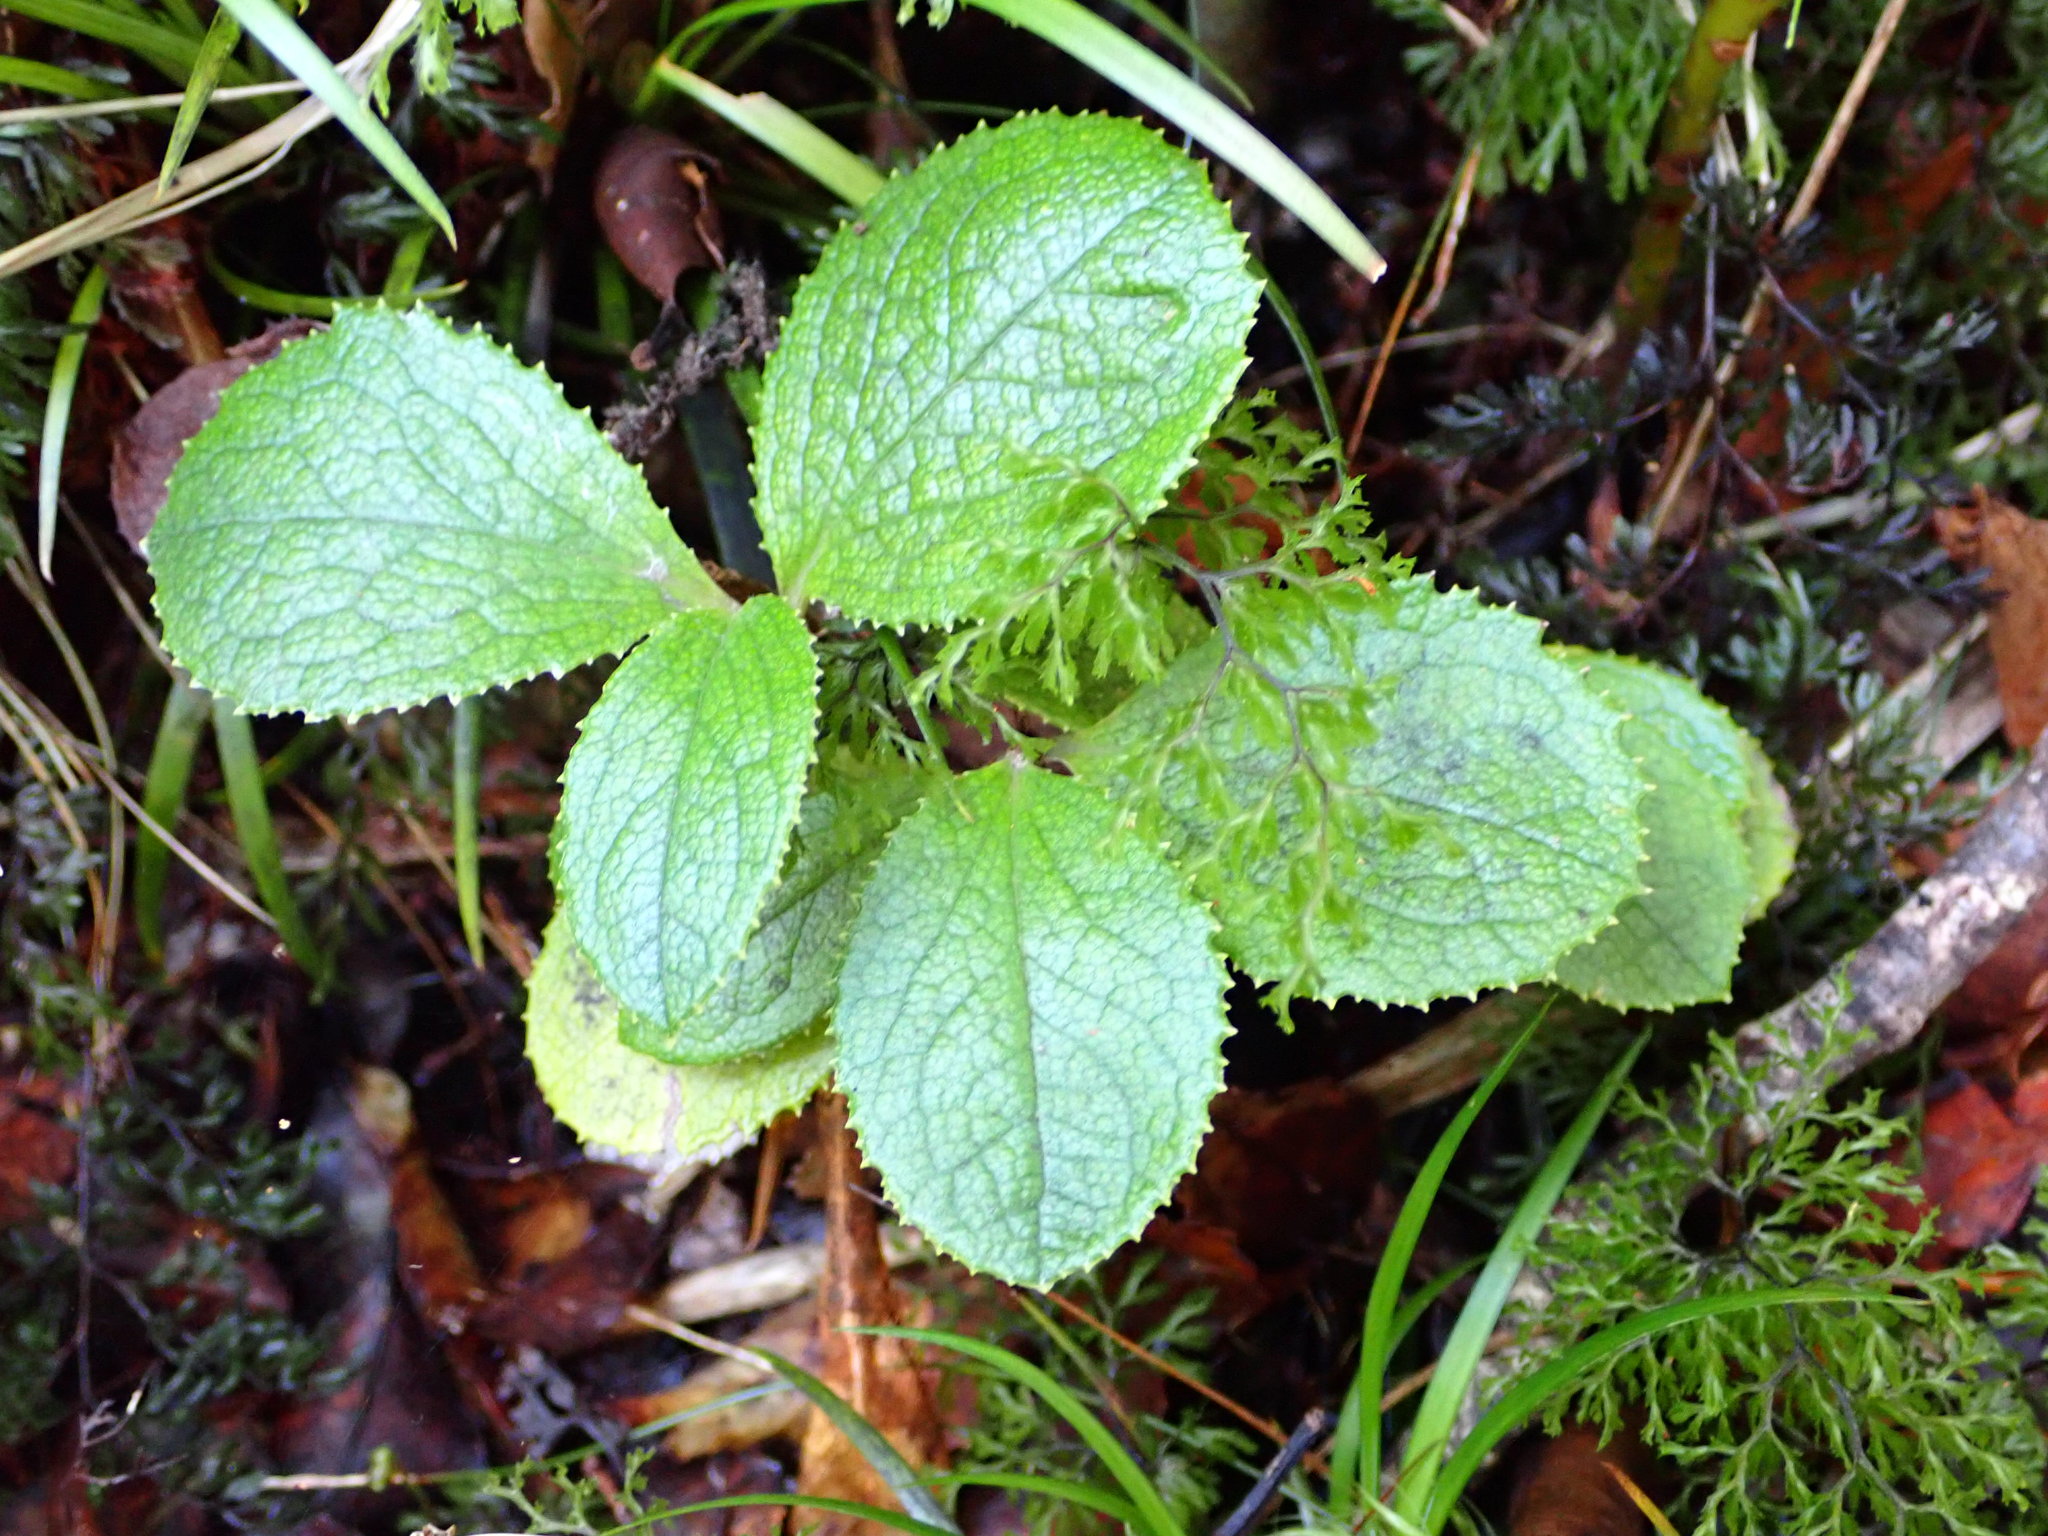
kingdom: Plantae
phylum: Tracheophyta
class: Magnoliopsida
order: Asterales
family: Asteraceae
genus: Macrolearia
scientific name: Macrolearia colensoi
